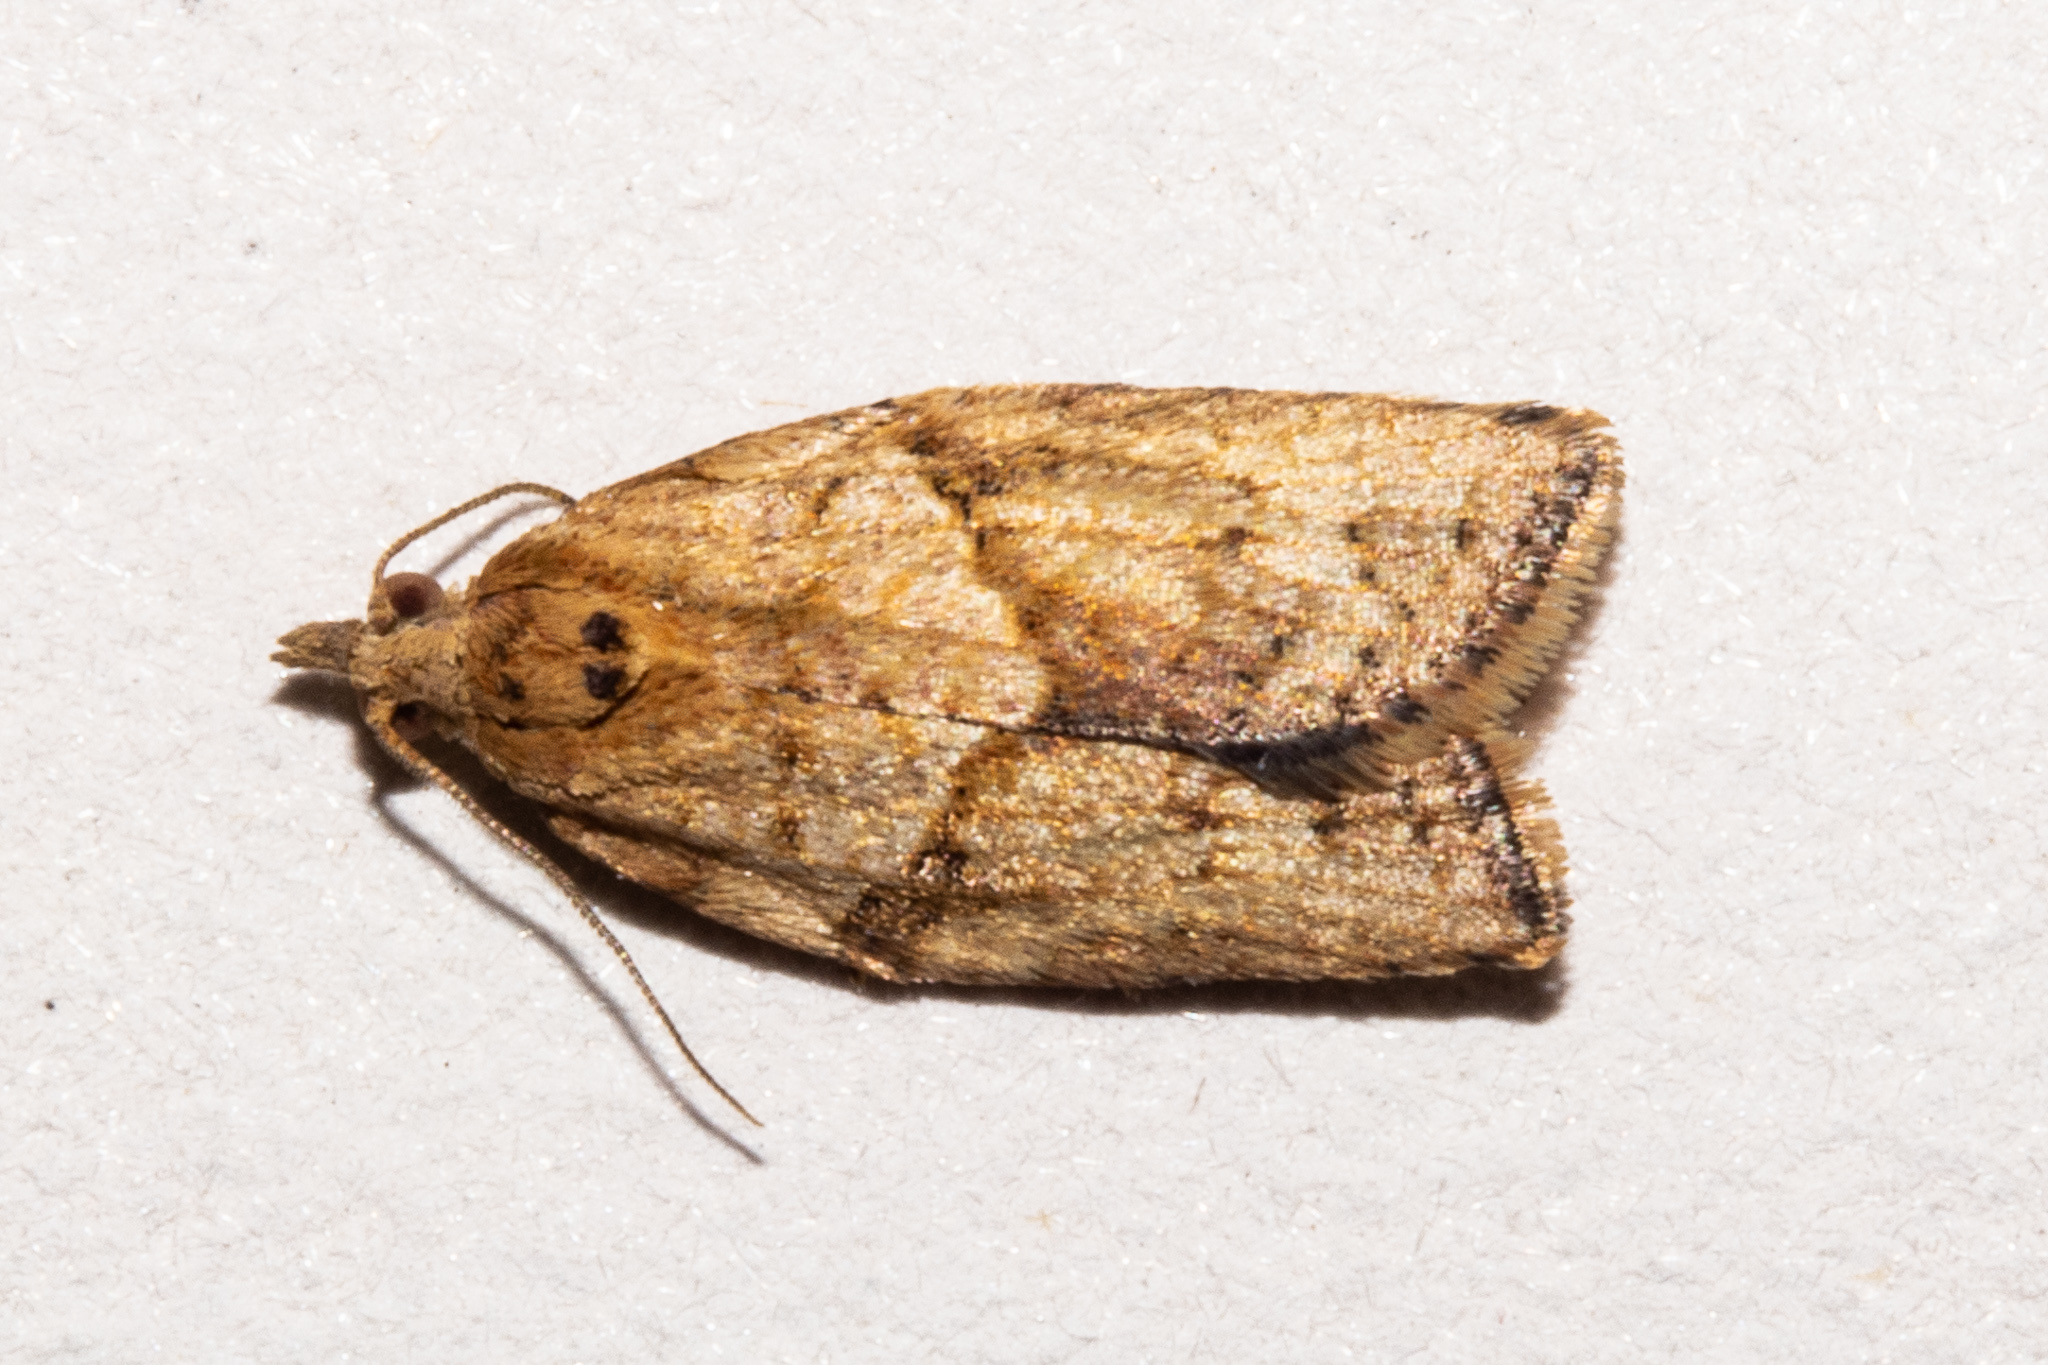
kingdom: Animalia
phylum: Arthropoda
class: Insecta
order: Lepidoptera
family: Tortricidae
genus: Epiphyas
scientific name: Epiphyas postvittana
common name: Light brown apple moth
